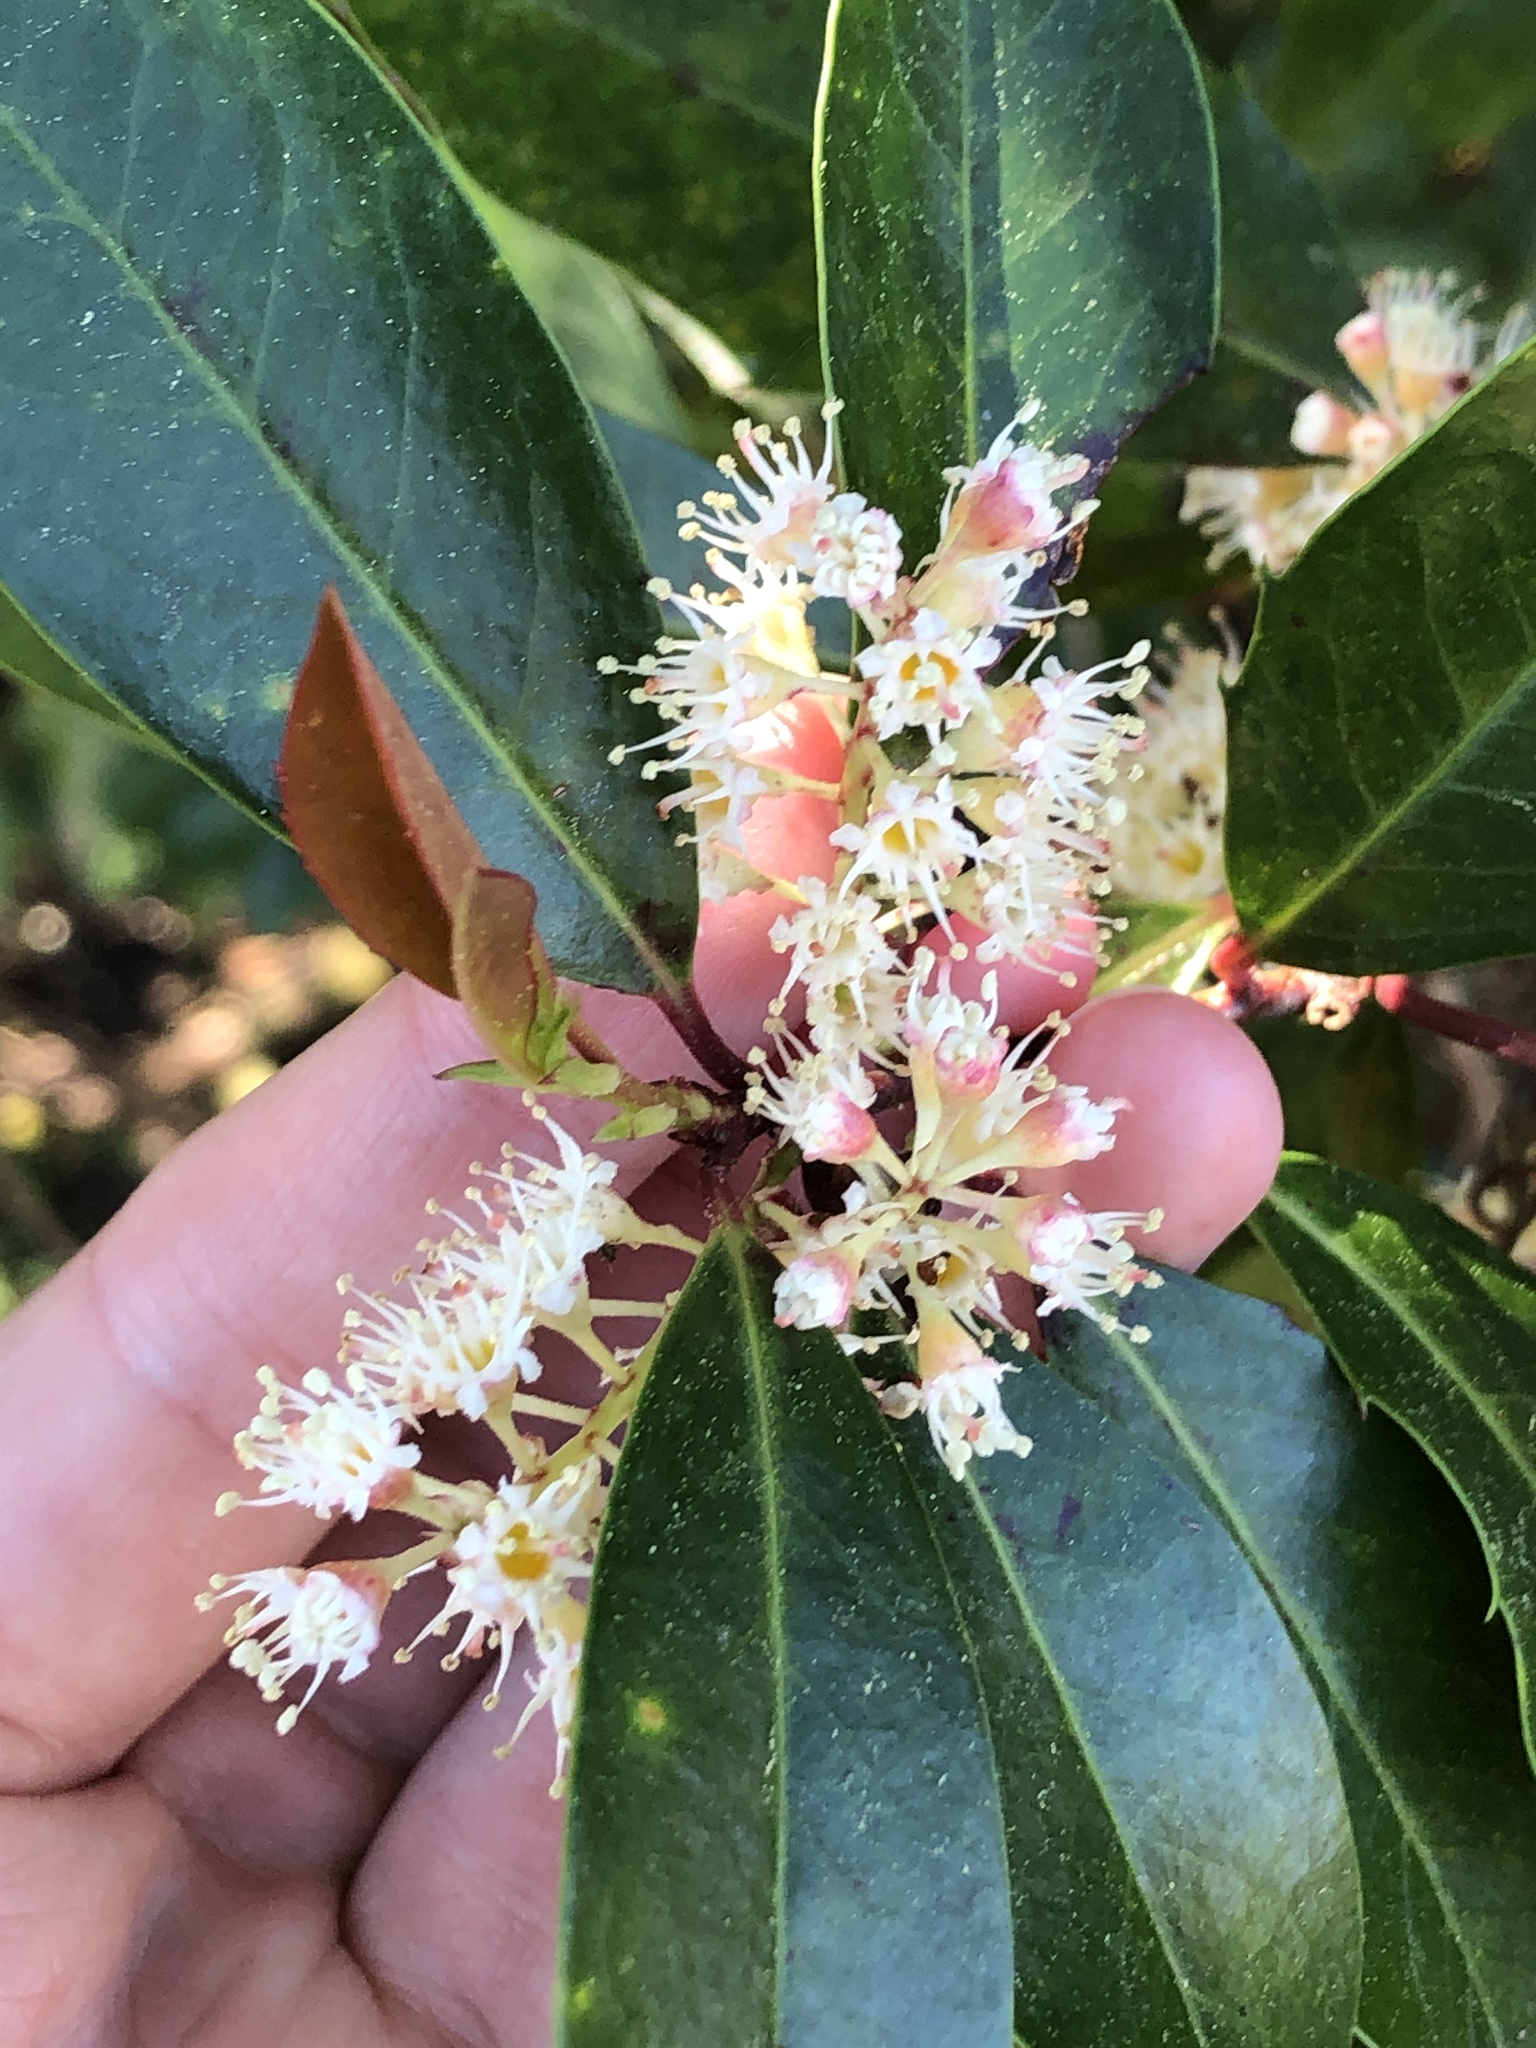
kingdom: Plantae
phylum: Tracheophyta
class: Magnoliopsida
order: Rosales
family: Rosaceae
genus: Prunus
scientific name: Prunus caroliniana
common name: Carolina laurel cherry
